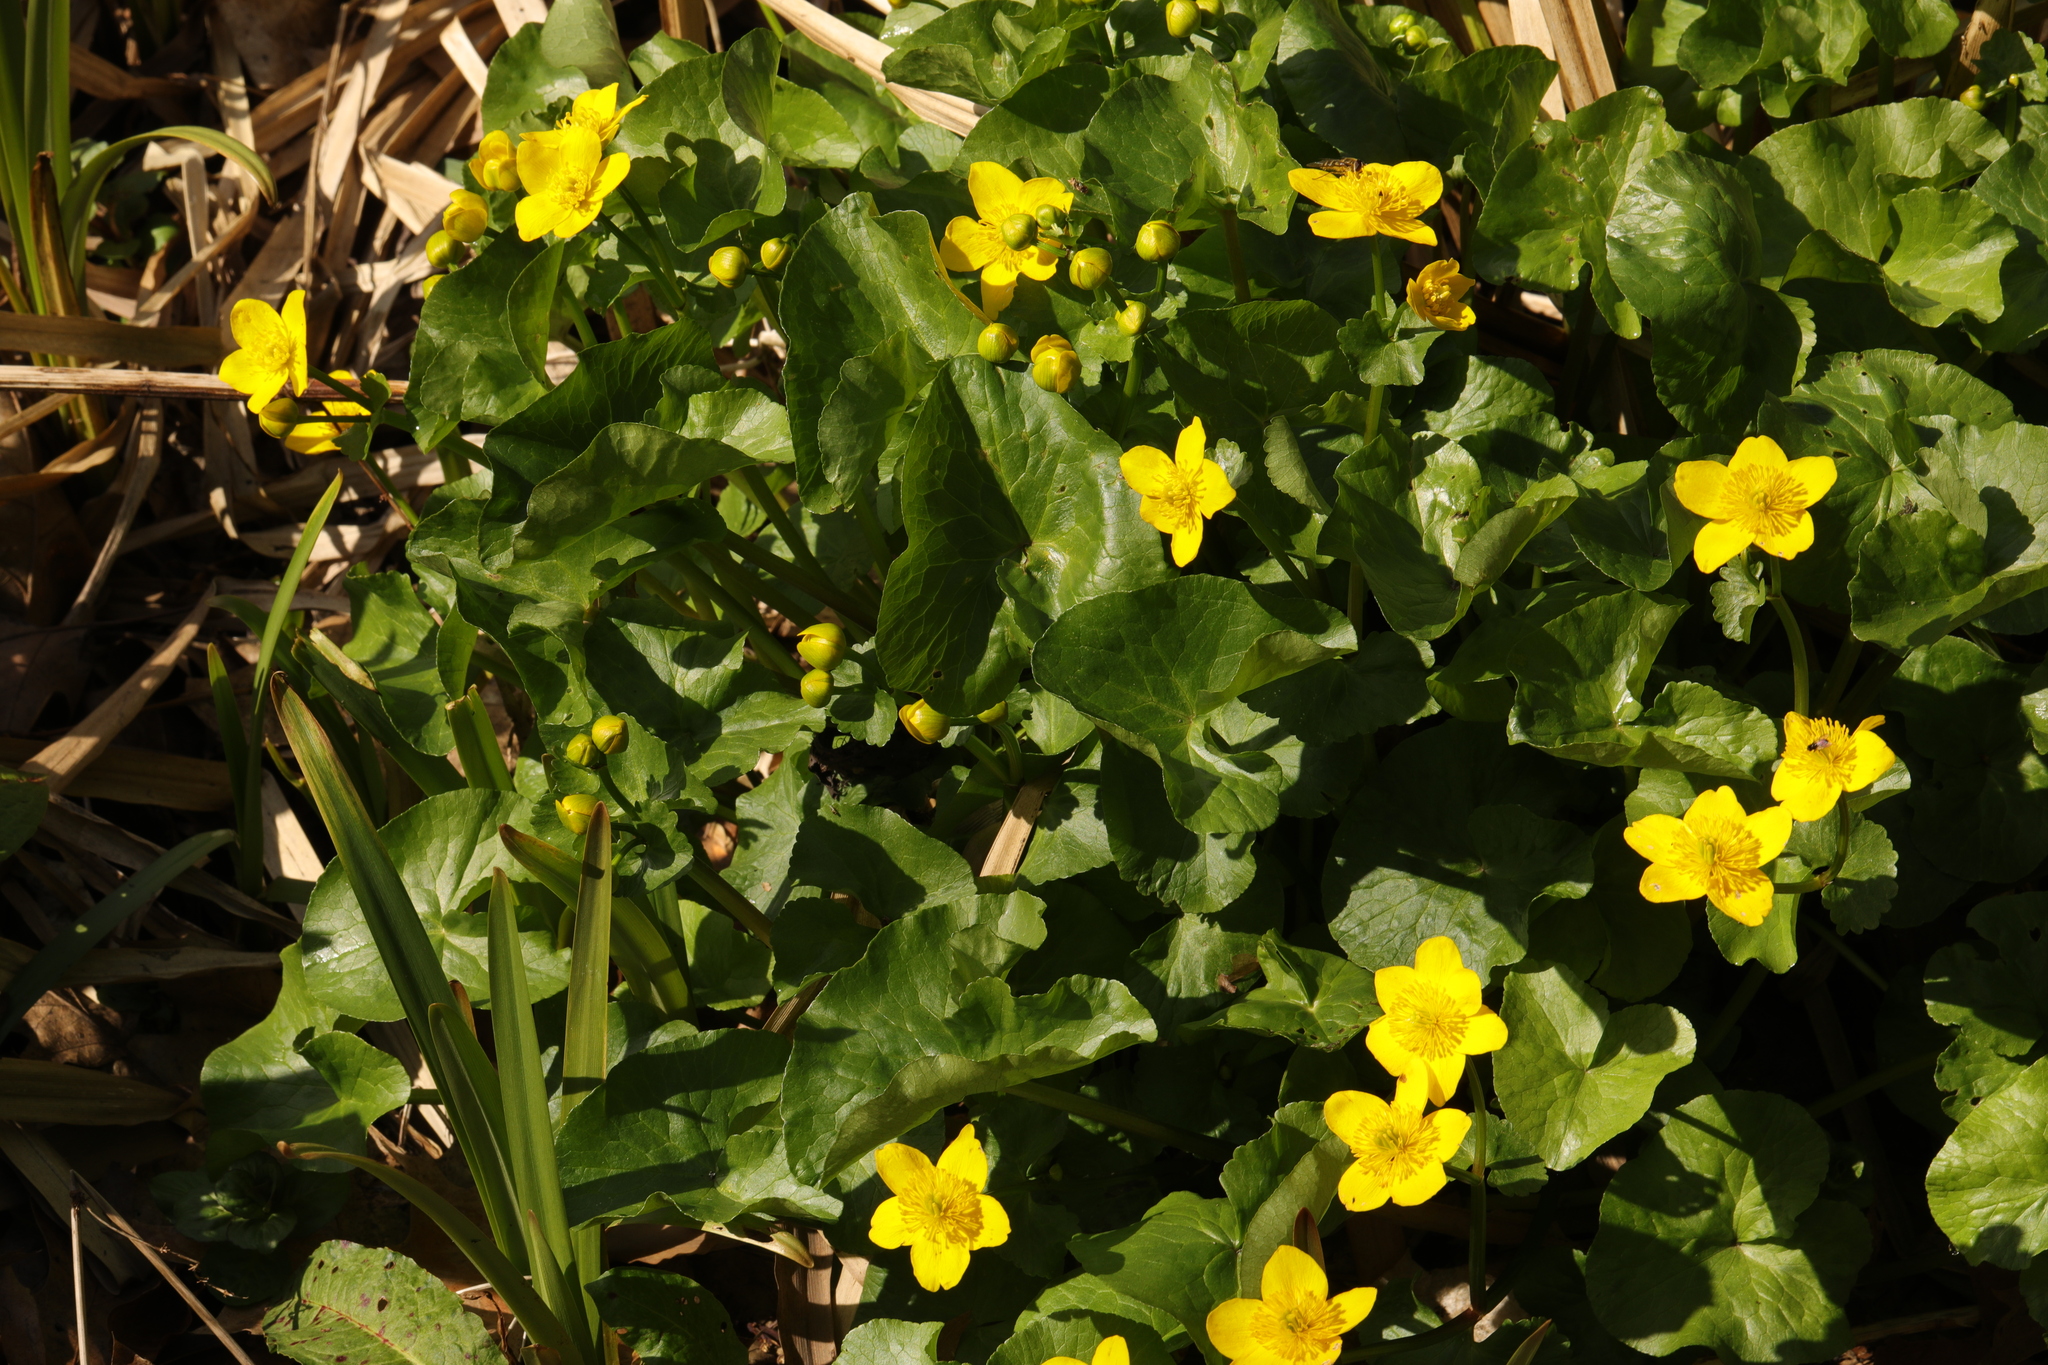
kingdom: Plantae
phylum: Tracheophyta
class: Magnoliopsida
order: Ranunculales
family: Ranunculaceae
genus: Caltha
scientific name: Caltha palustris
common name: Marsh marigold
